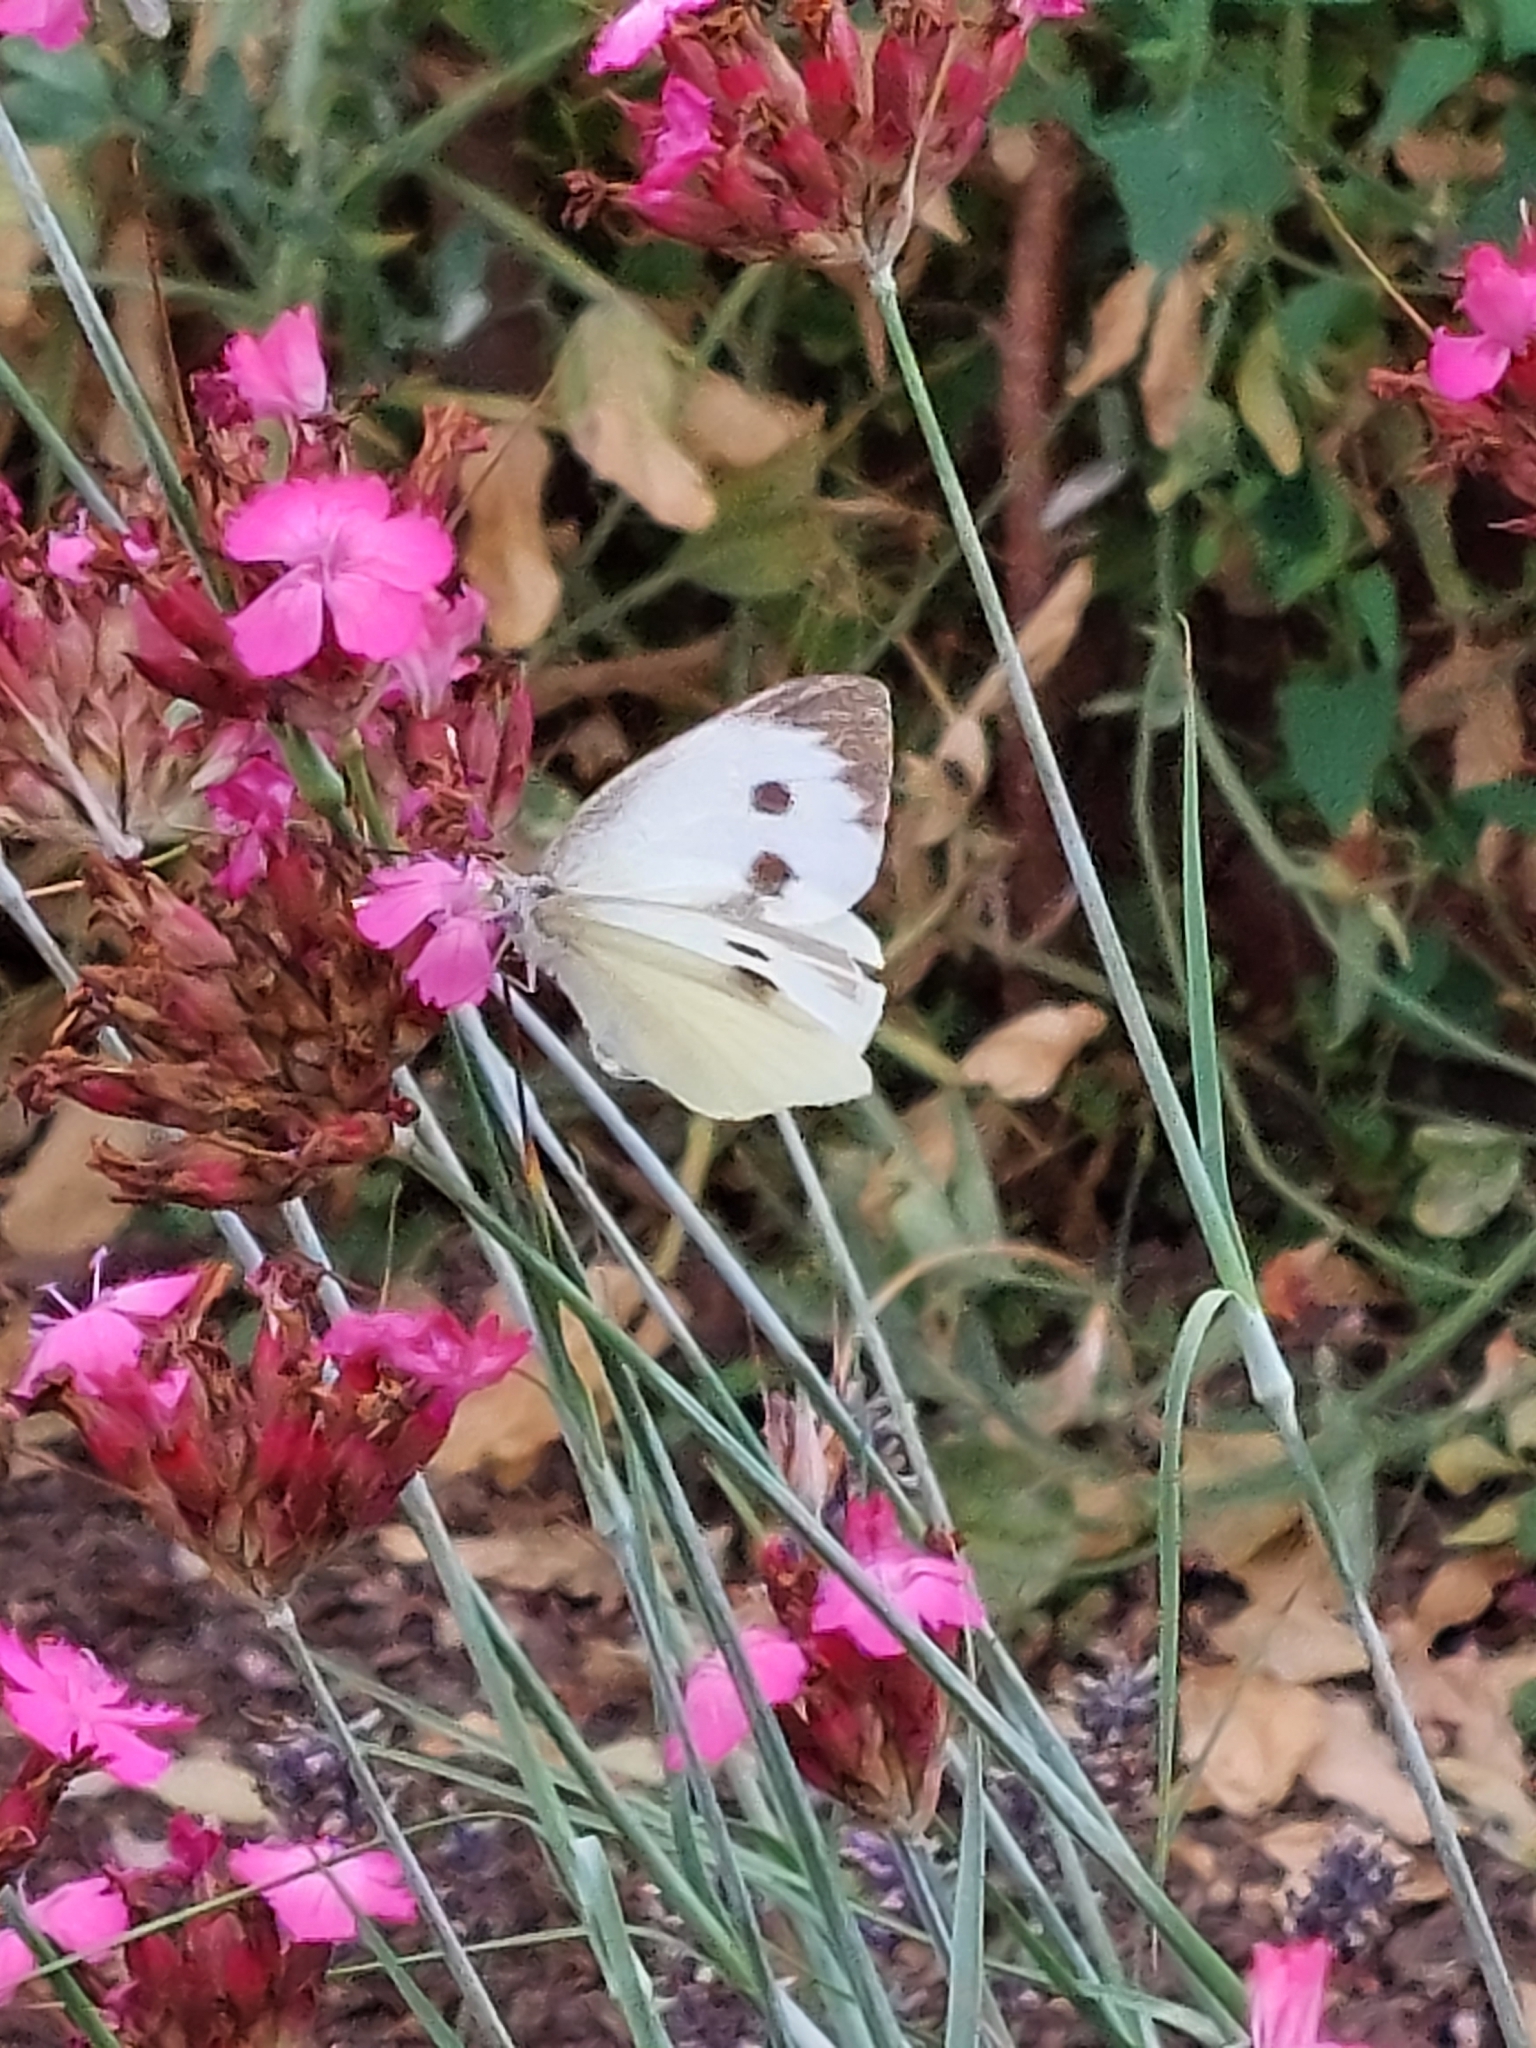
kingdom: Animalia
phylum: Arthropoda
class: Insecta
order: Lepidoptera
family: Pieridae
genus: Pieris
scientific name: Pieris brassicae
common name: Large white
